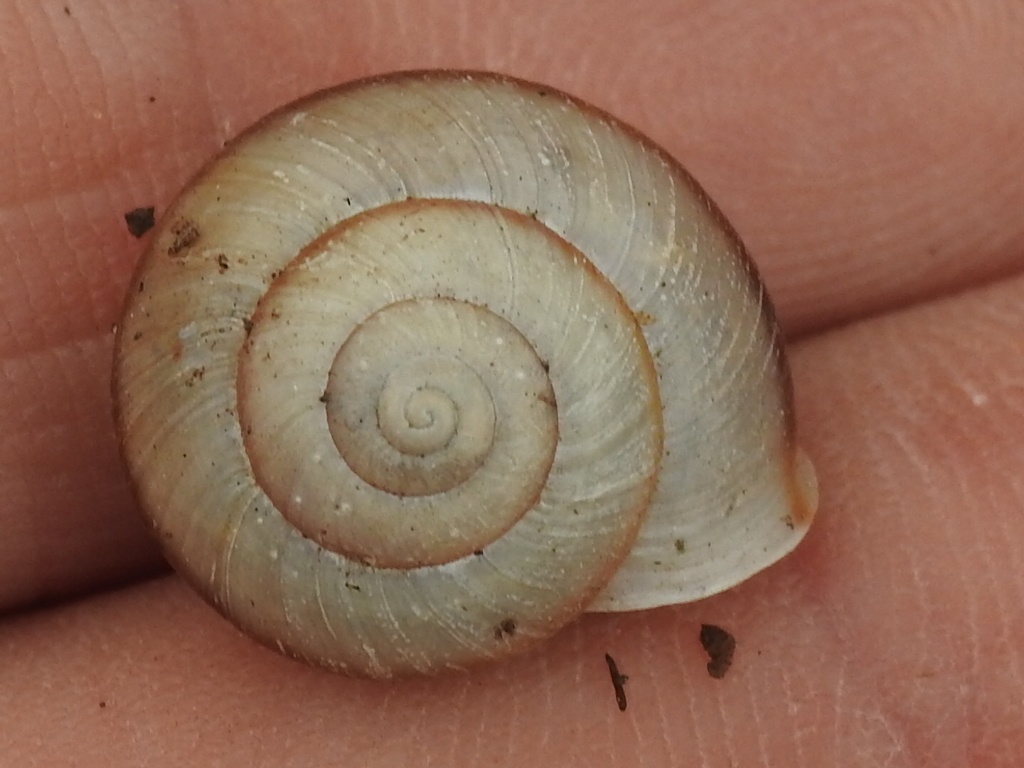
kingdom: Animalia
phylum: Mollusca
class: Gastropoda
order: Stylommatophora
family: Camaenidae
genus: Bradybaena
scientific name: Bradybaena similaris
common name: Asian trampsnail
